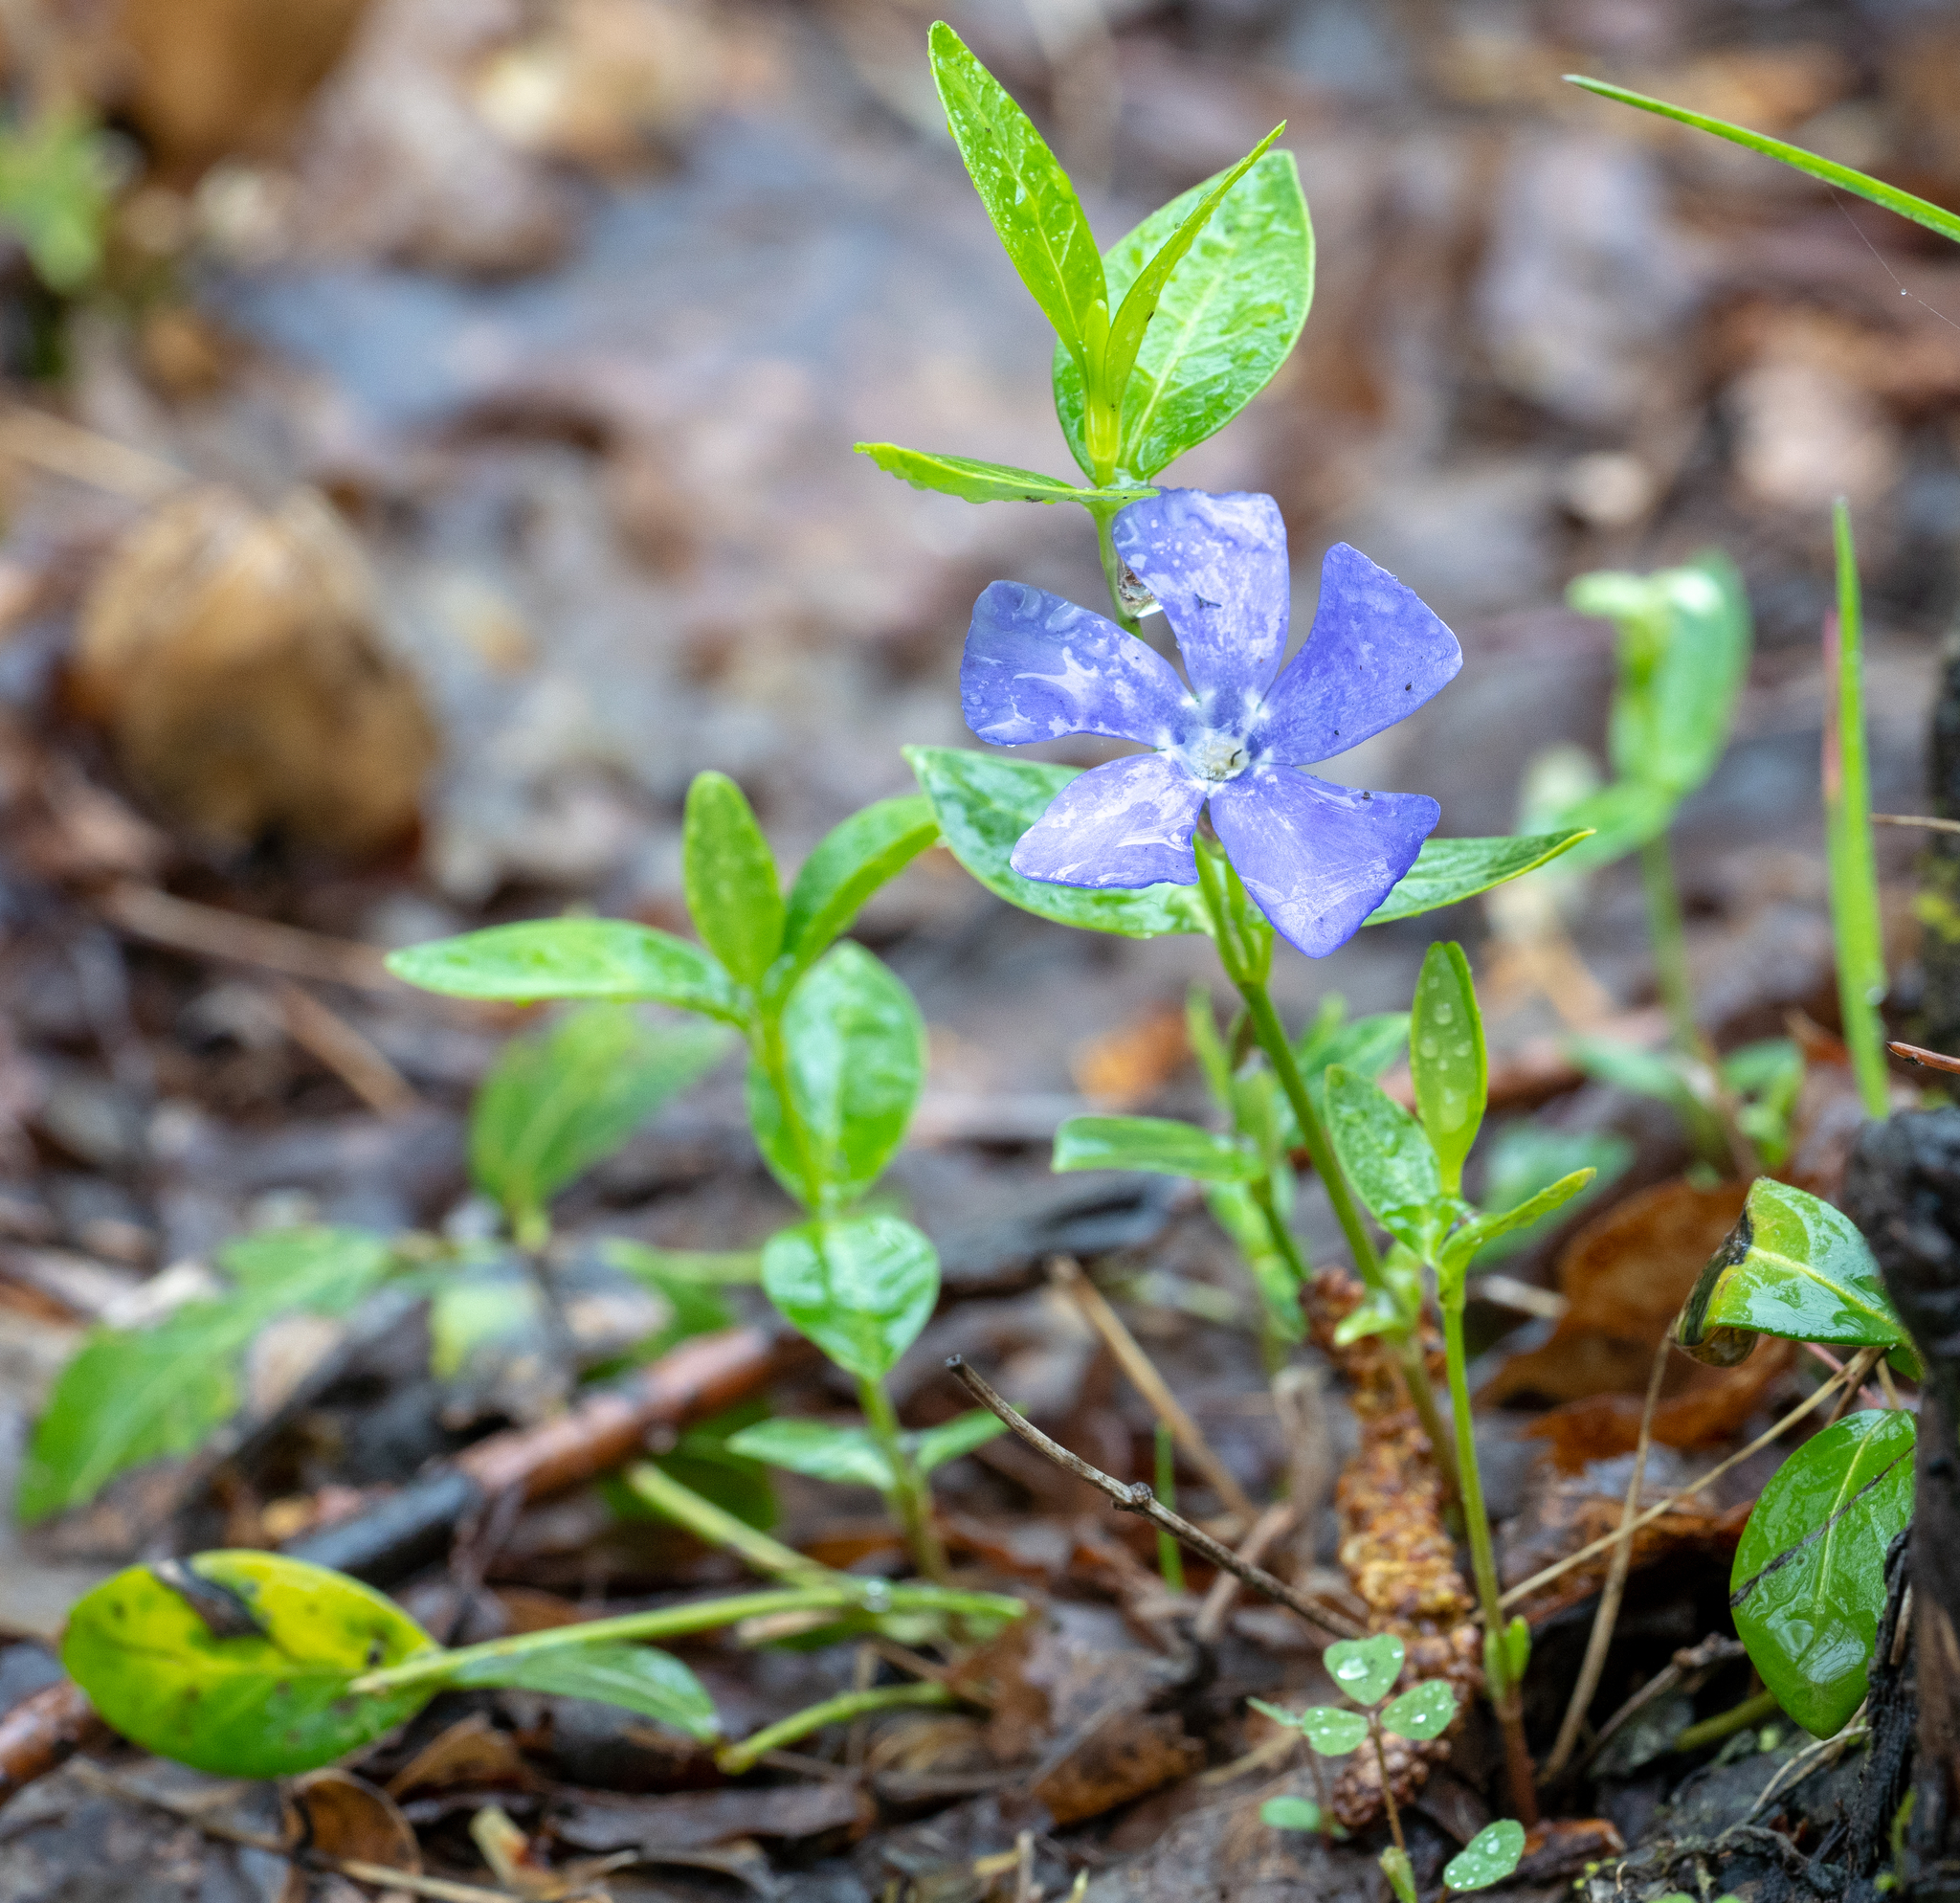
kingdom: Plantae
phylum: Tracheophyta
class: Magnoliopsida
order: Gentianales
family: Apocynaceae
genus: Vinca
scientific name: Vinca minor
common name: Lesser periwinkle
